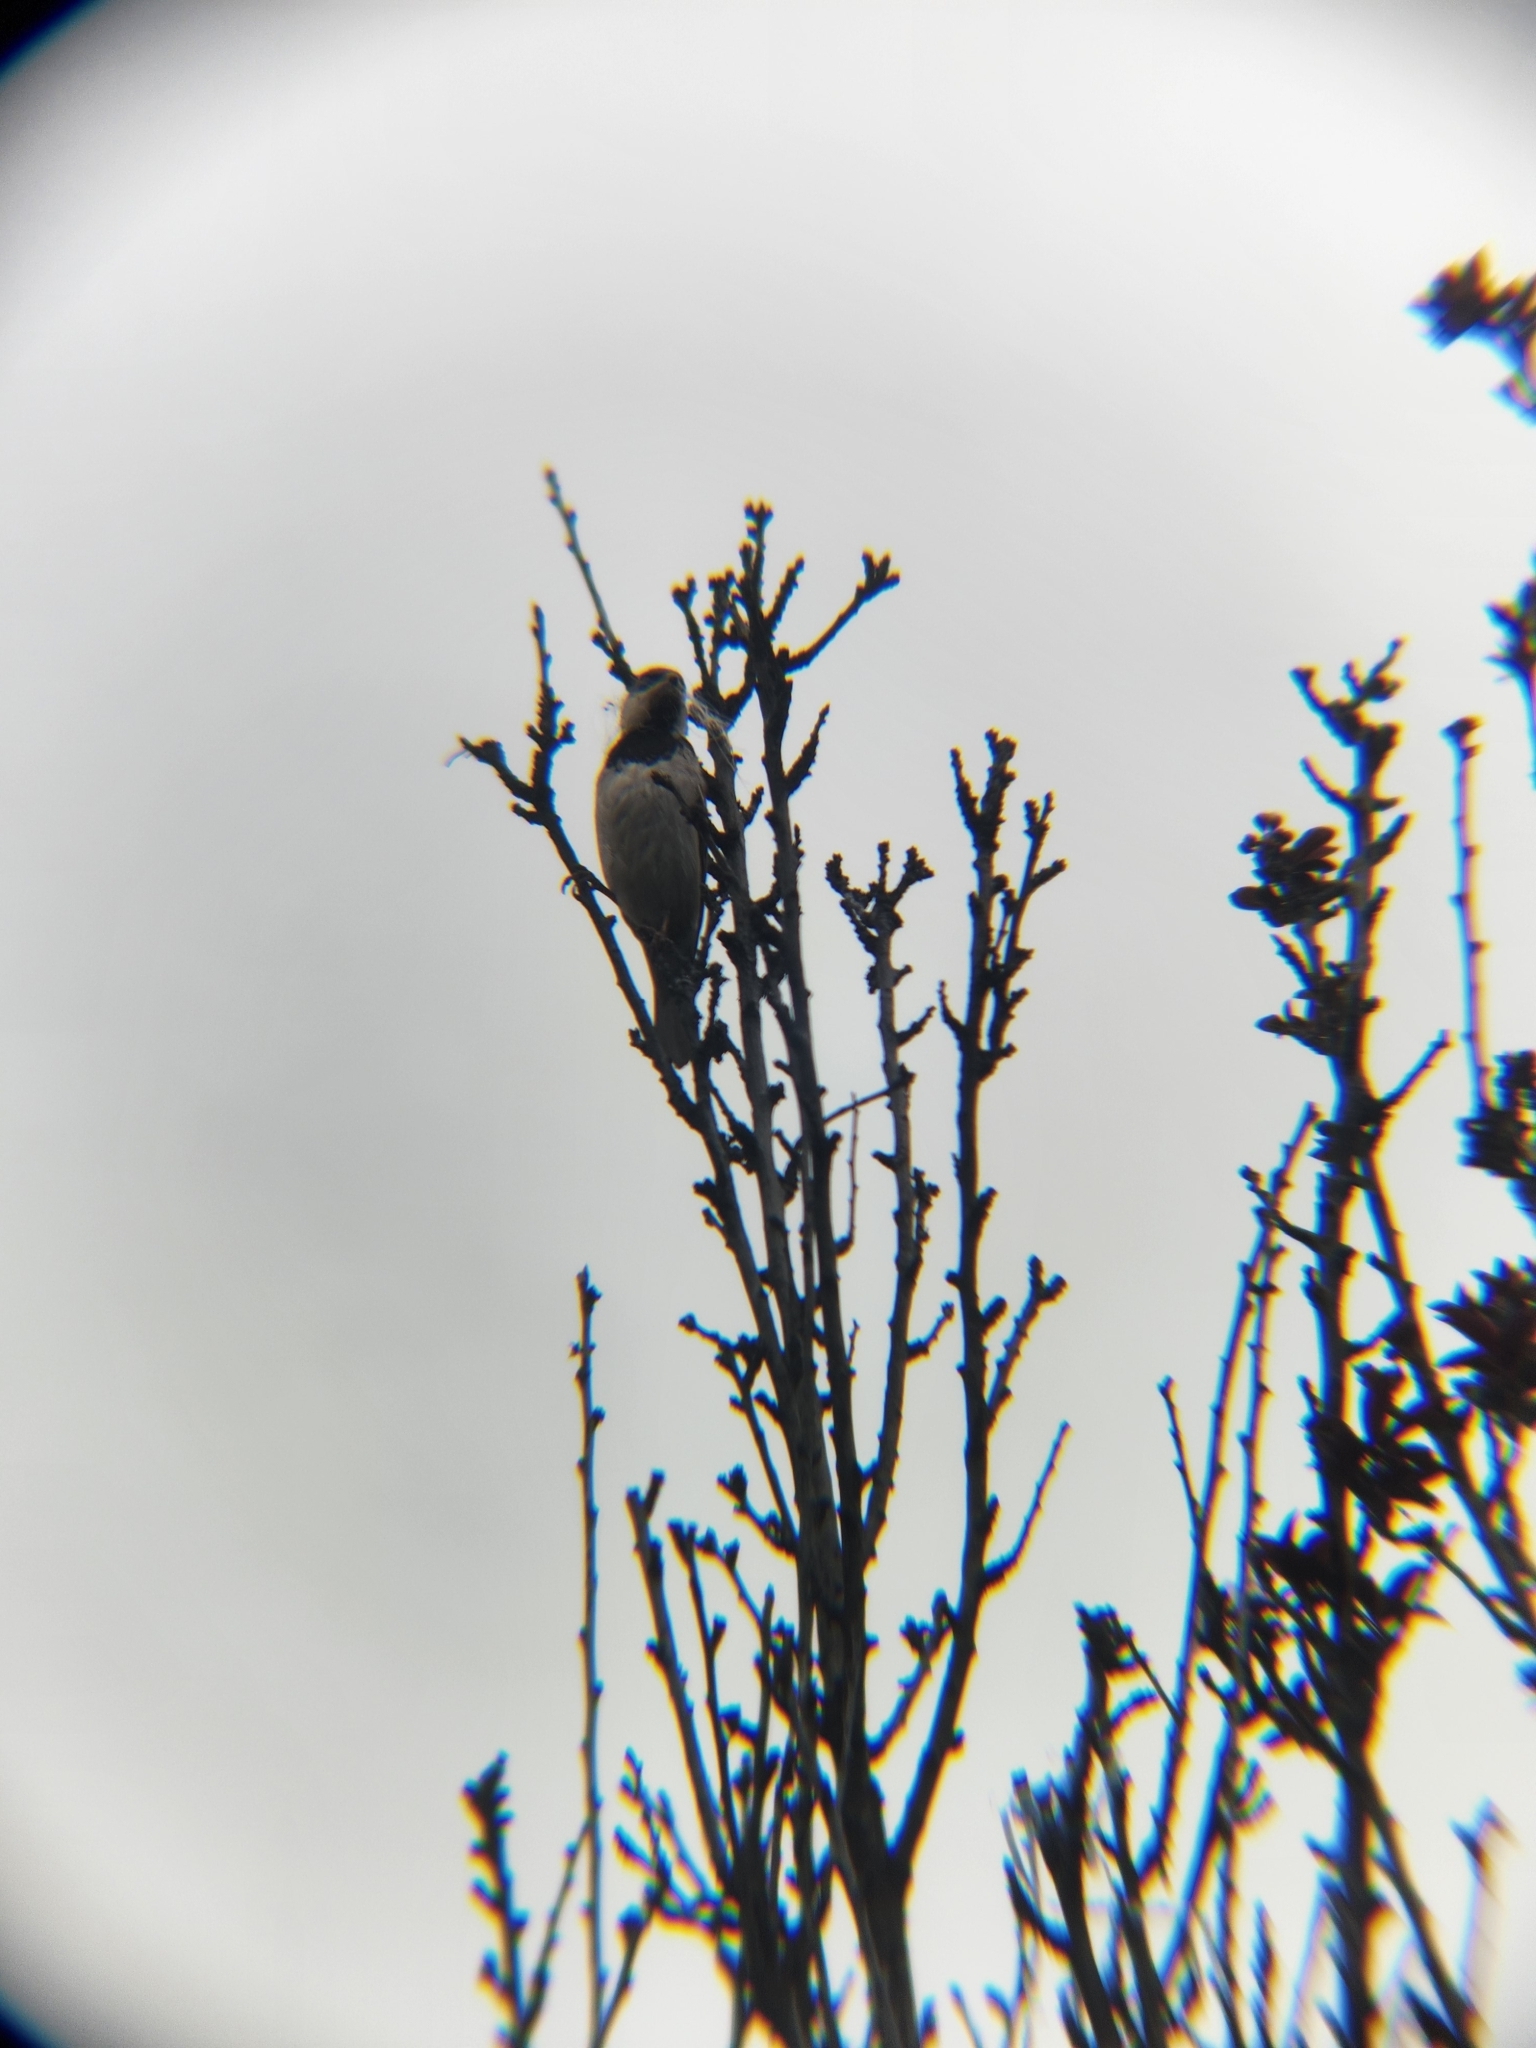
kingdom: Animalia
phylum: Chordata
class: Aves
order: Passeriformes
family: Passeridae
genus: Passer
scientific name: Passer domesticus
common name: House sparrow
